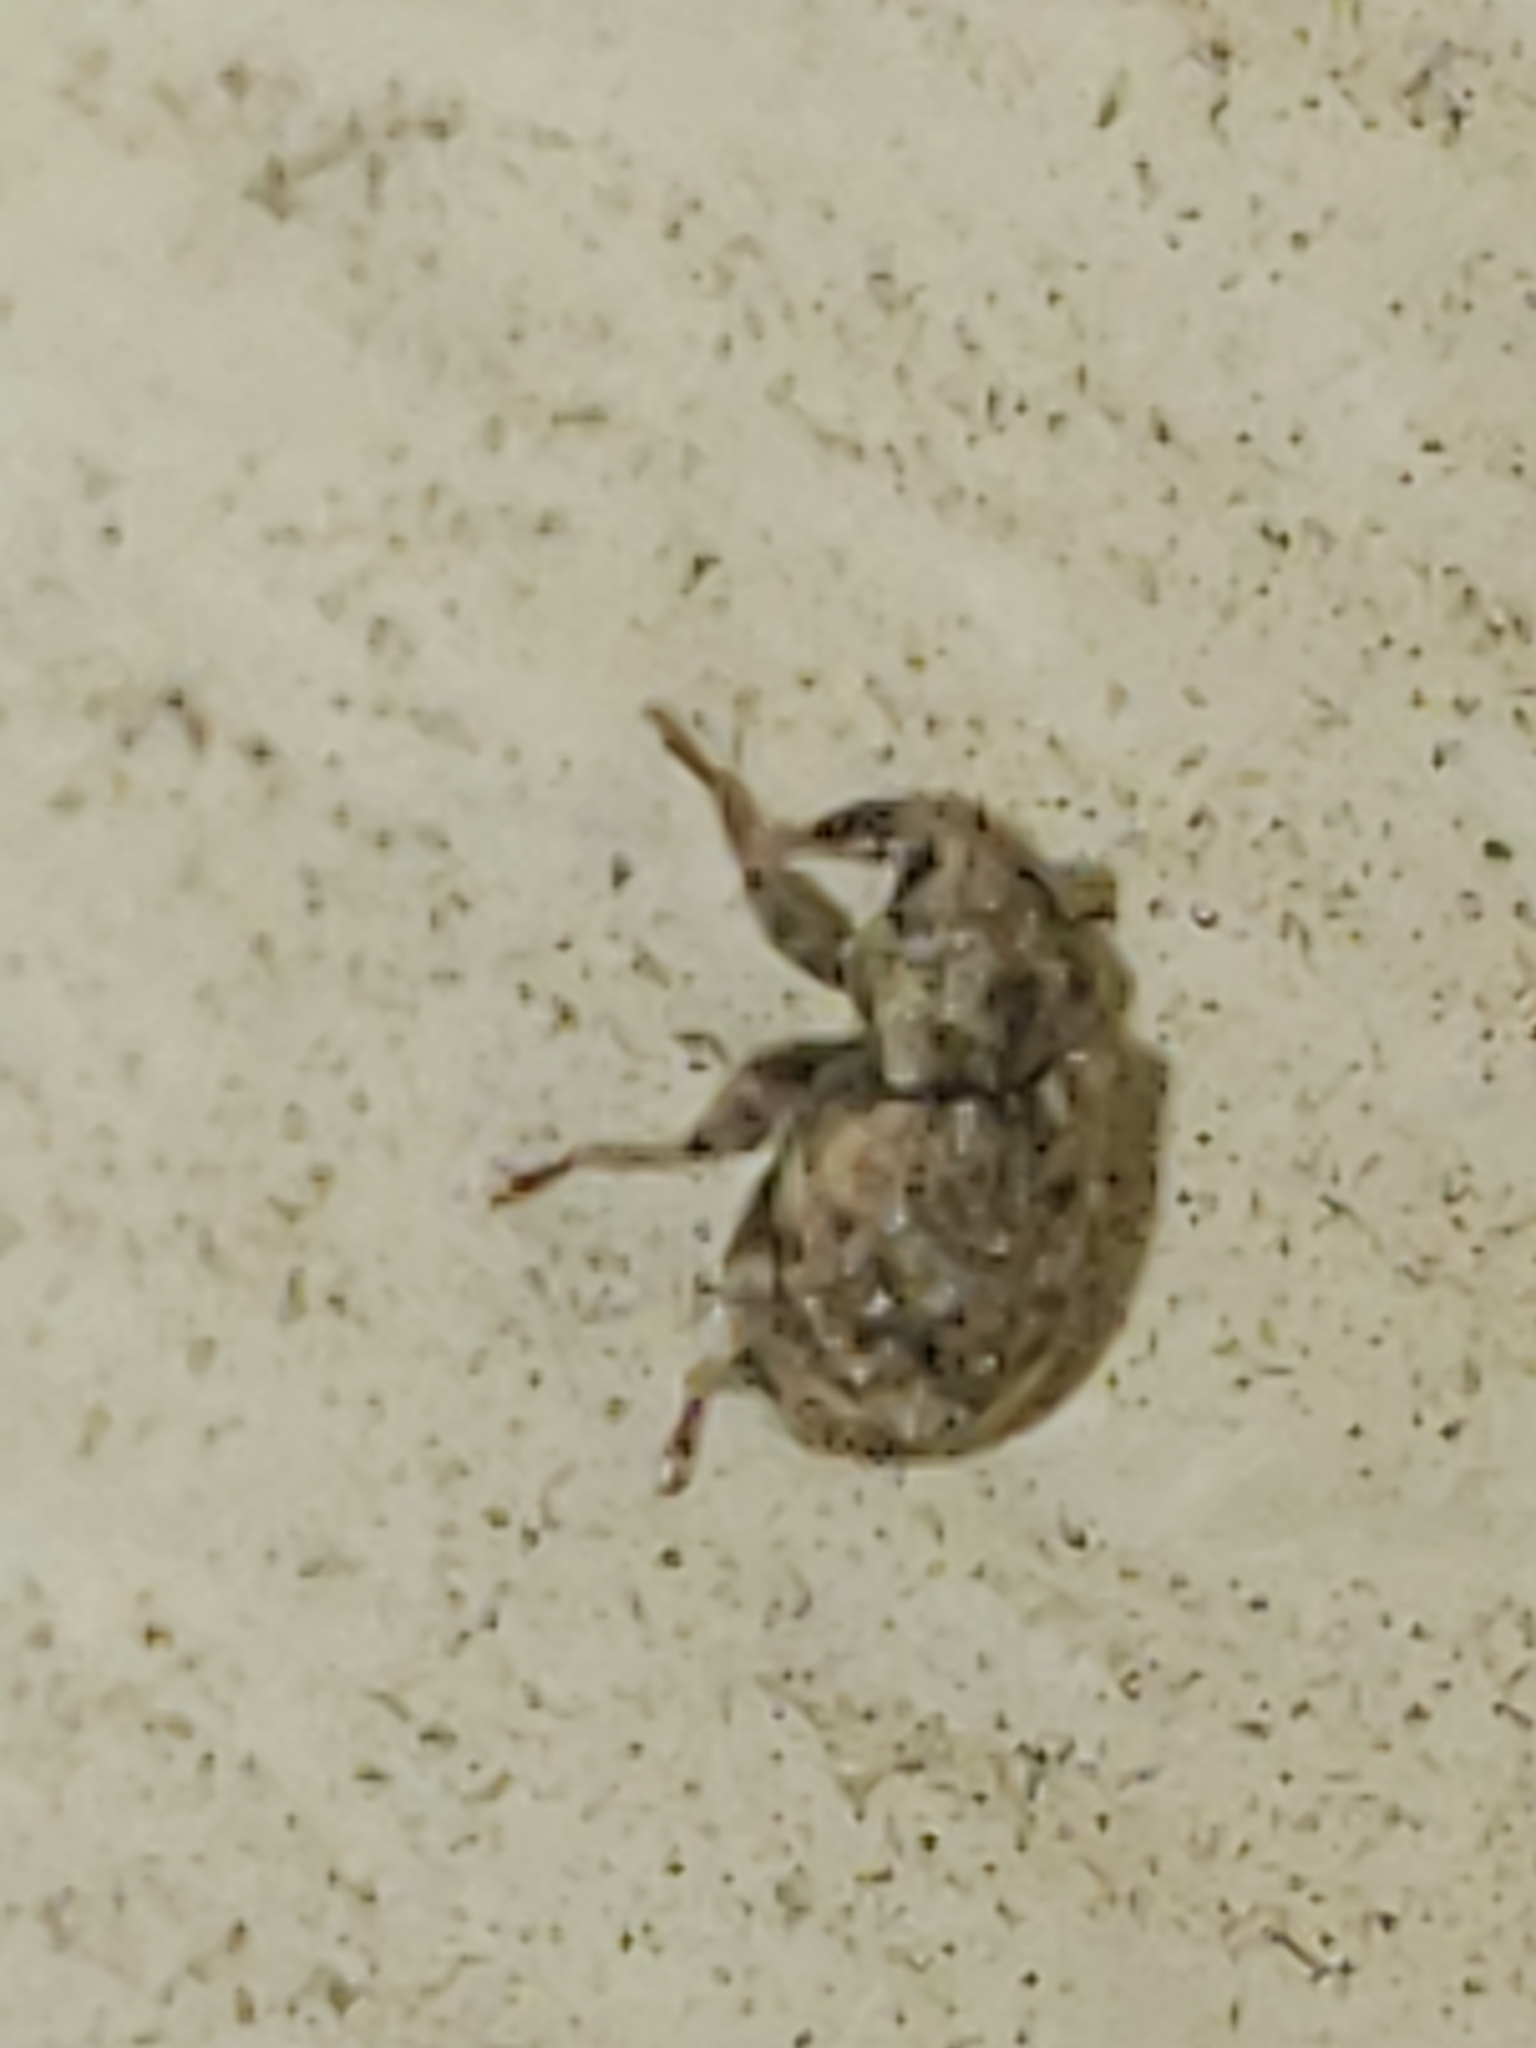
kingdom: Animalia
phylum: Arthropoda
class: Insecta
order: Coleoptera
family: Curculionidae
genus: Conotrachelus
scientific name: Conotrachelus recessus
